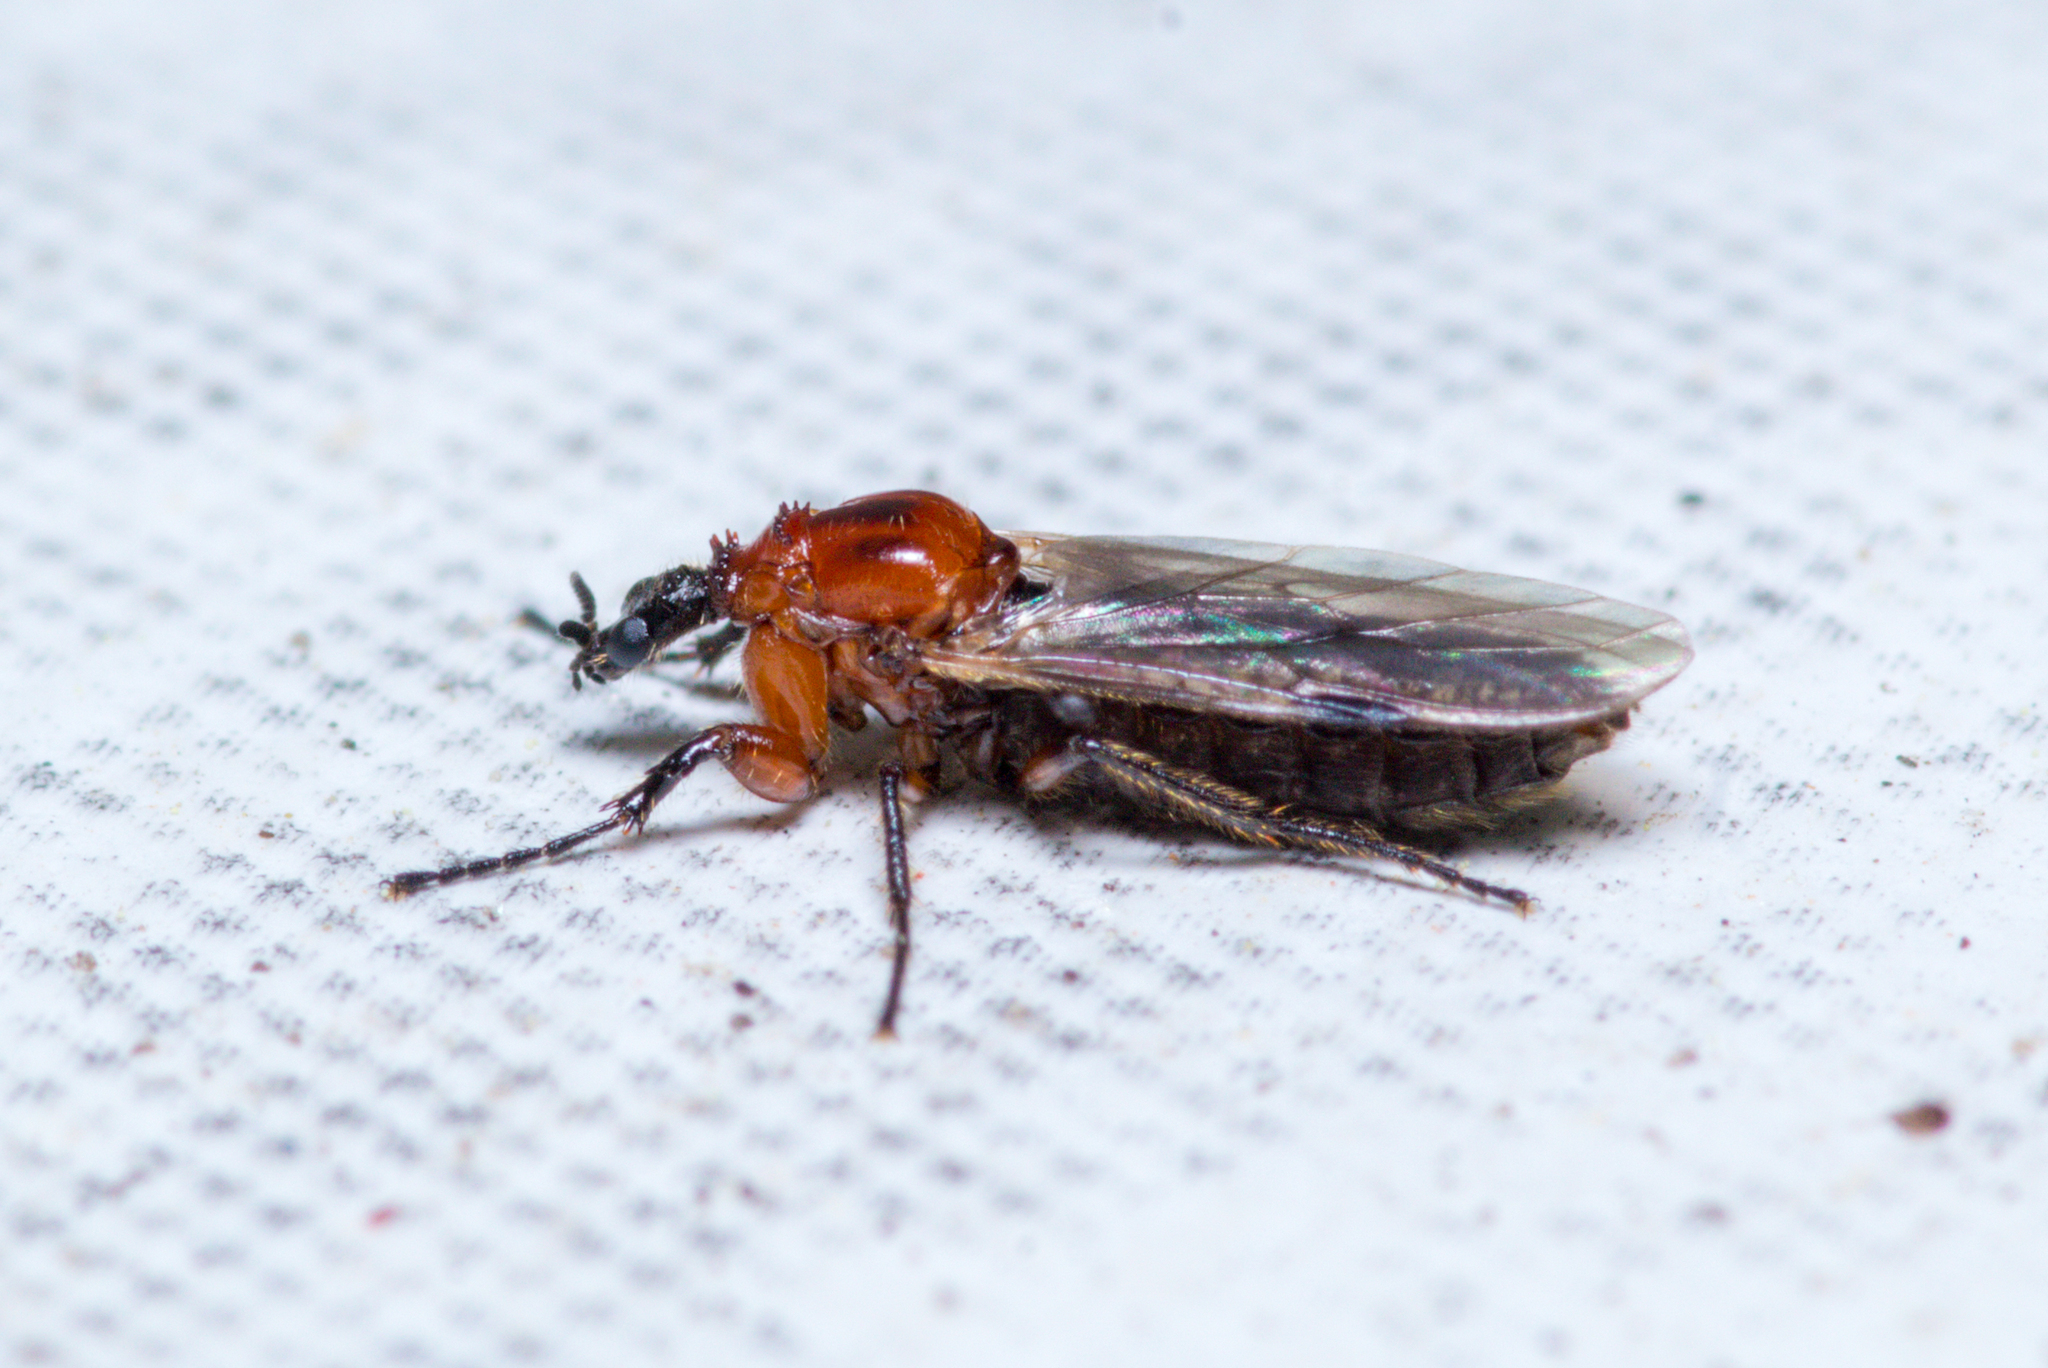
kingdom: Animalia
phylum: Arthropoda
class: Insecta
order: Diptera
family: Bibionidae
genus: Dilophus
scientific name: Dilophus tibialis
